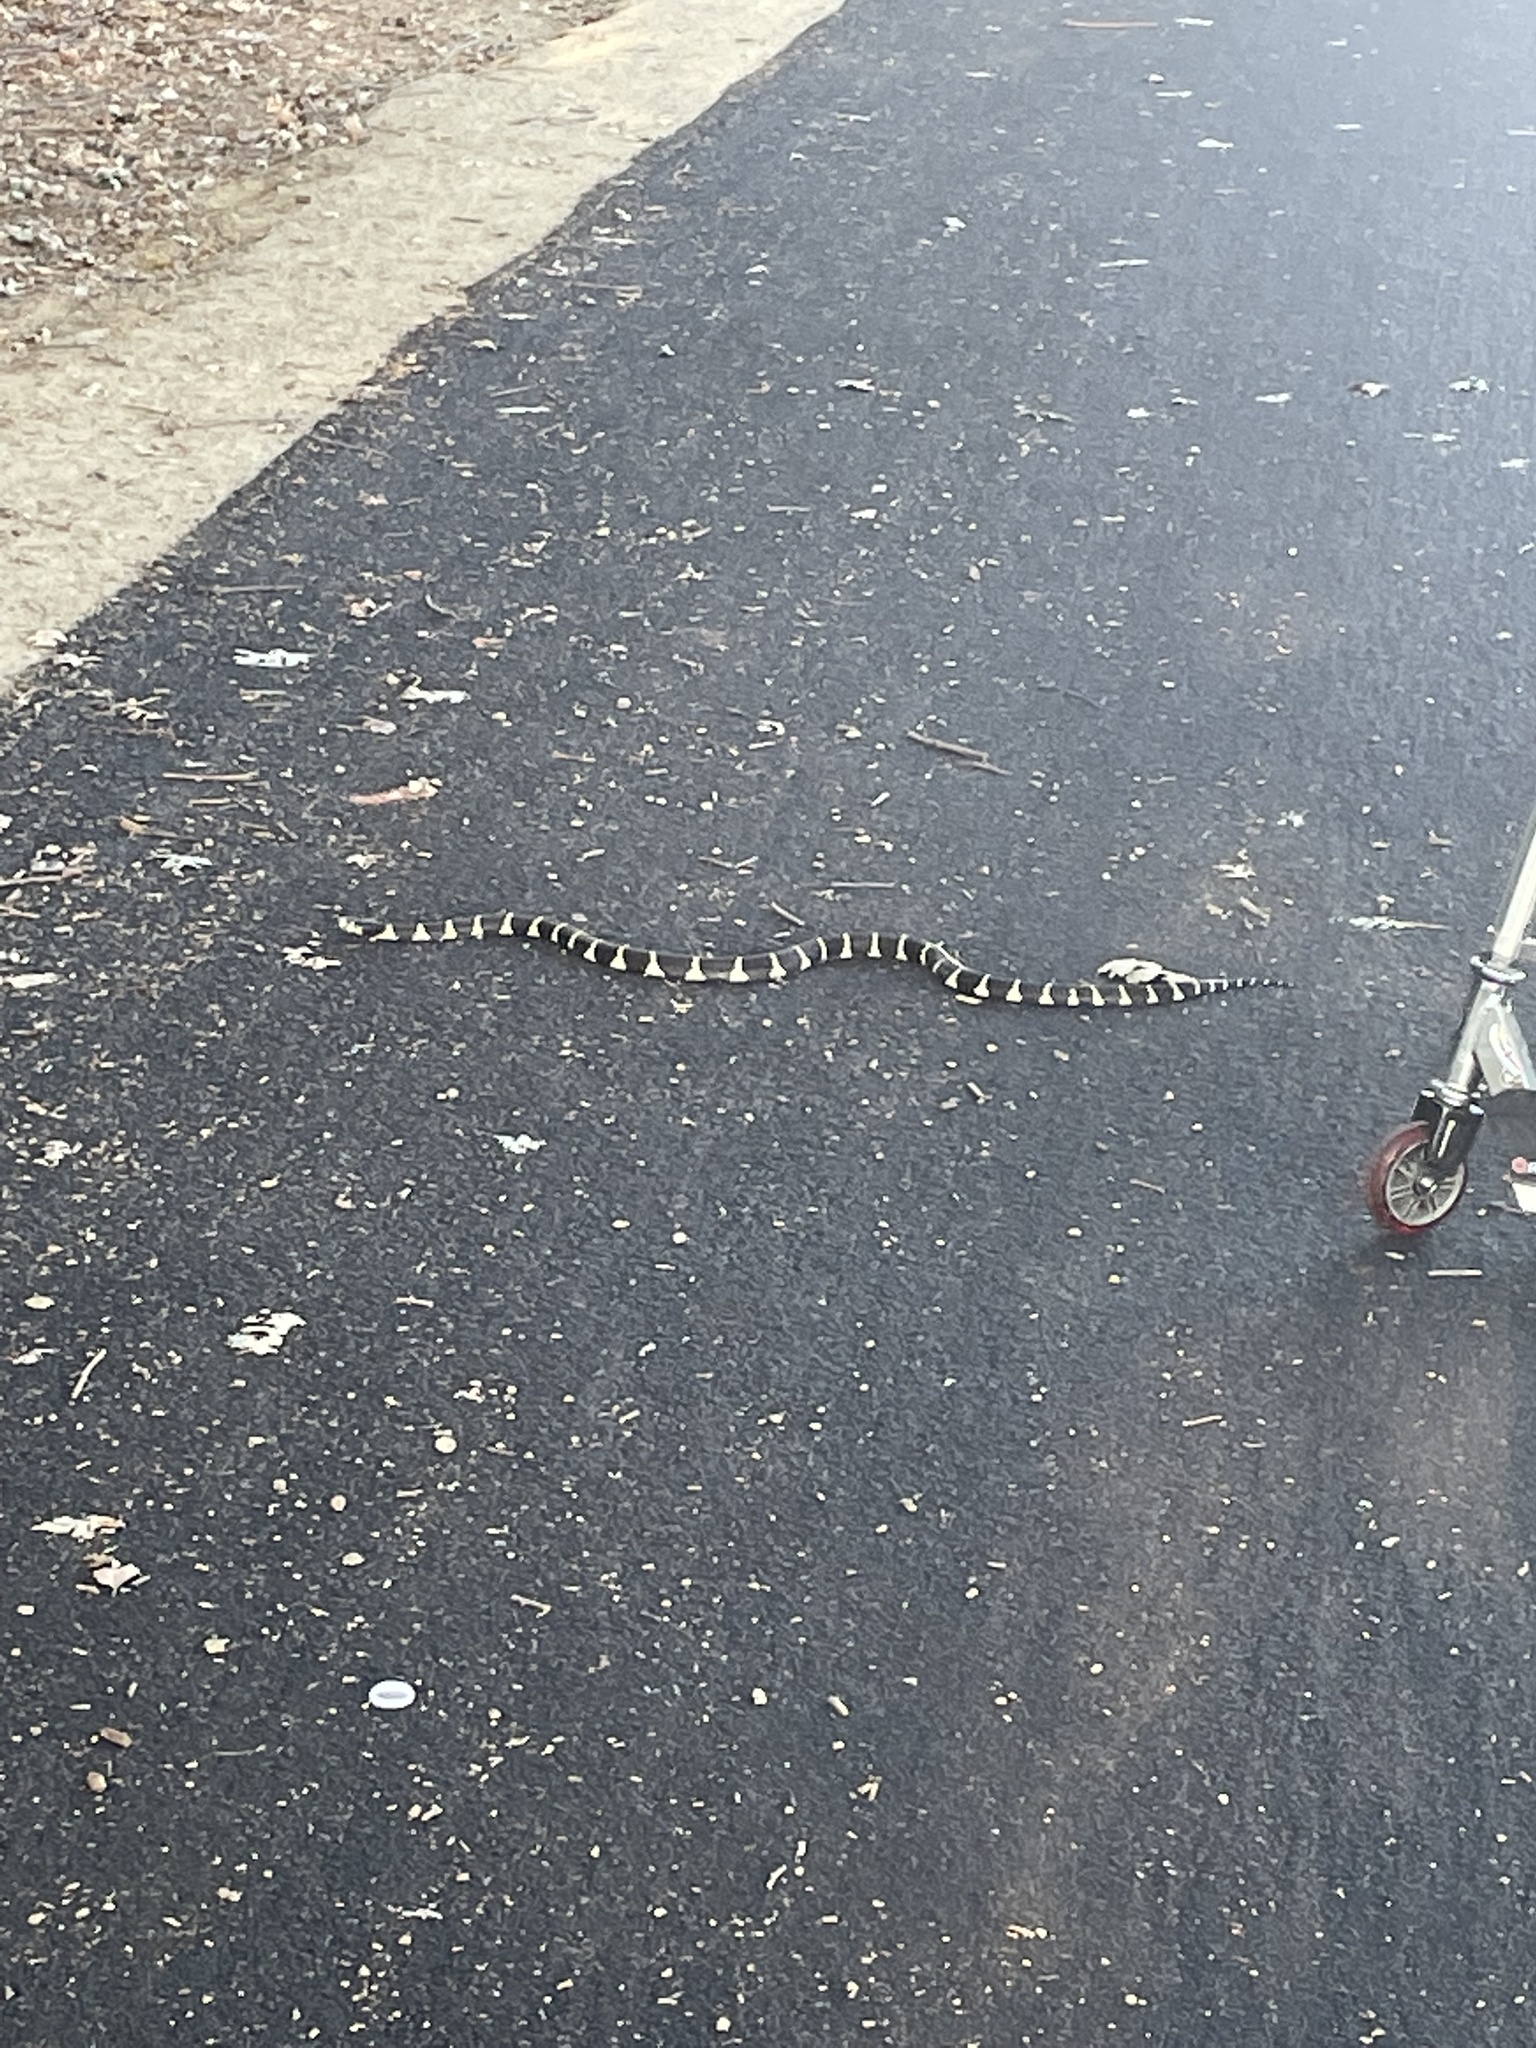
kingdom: Animalia
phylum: Chordata
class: Squamata
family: Colubridae
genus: Lampropeltis
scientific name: Lampropeltis californiae
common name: California kingsnake
